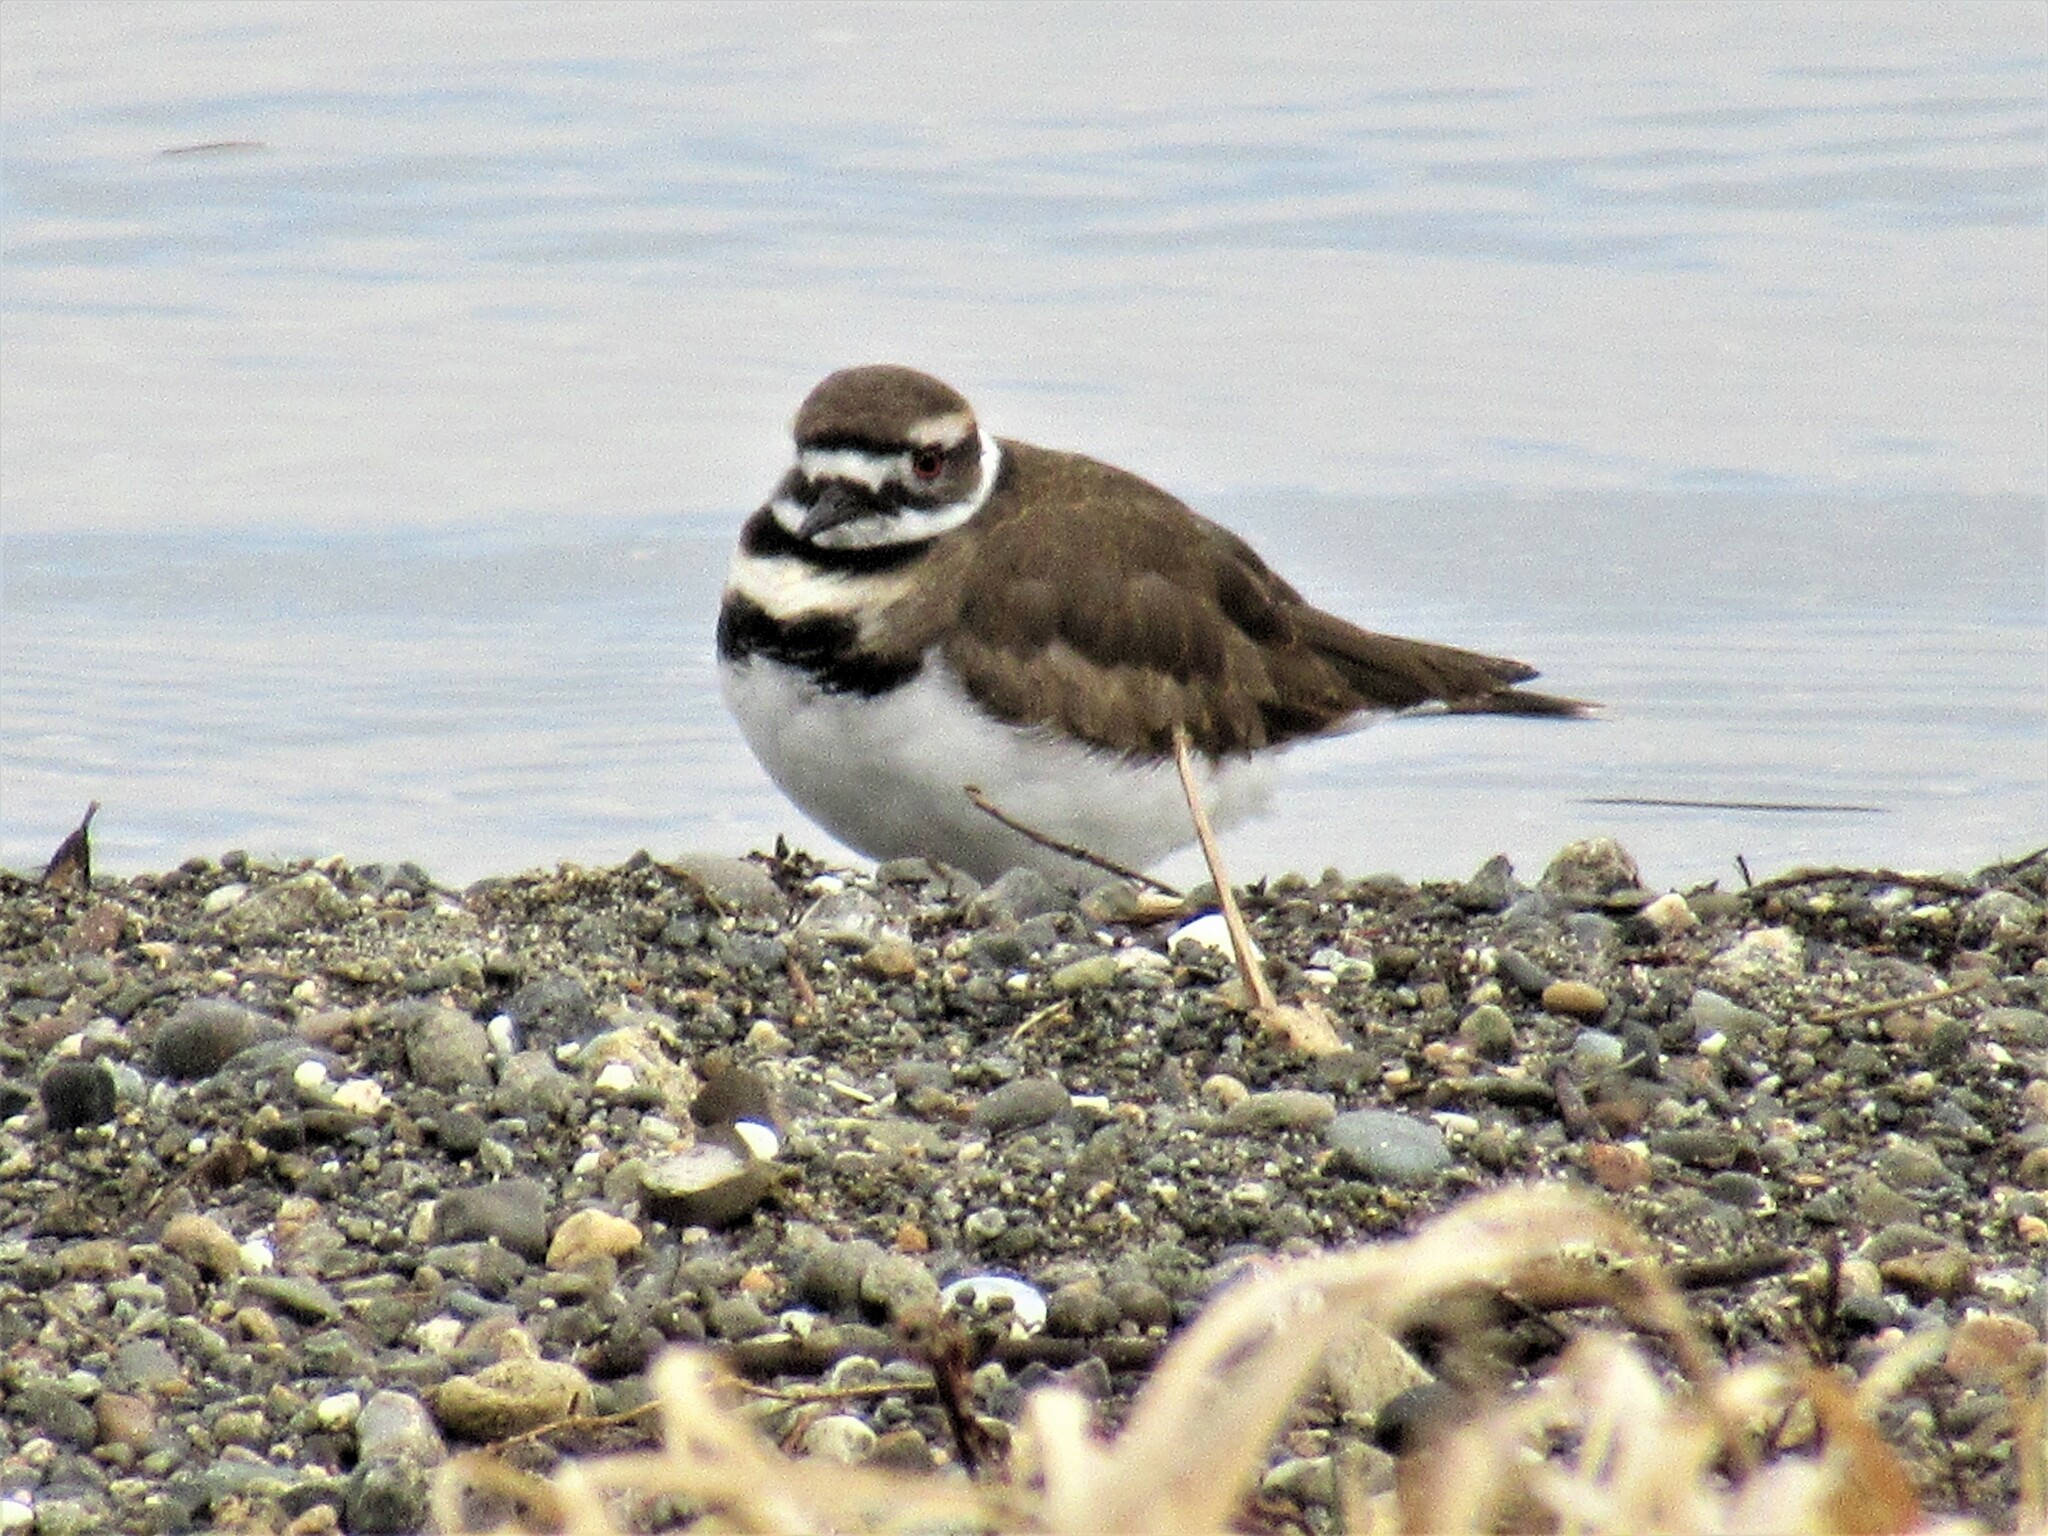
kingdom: Animalia
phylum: Chordata
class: Aves
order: Charadriiformes
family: Charadriidae
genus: Charadrius
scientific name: Charadrius vociferus
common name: Killdeer
